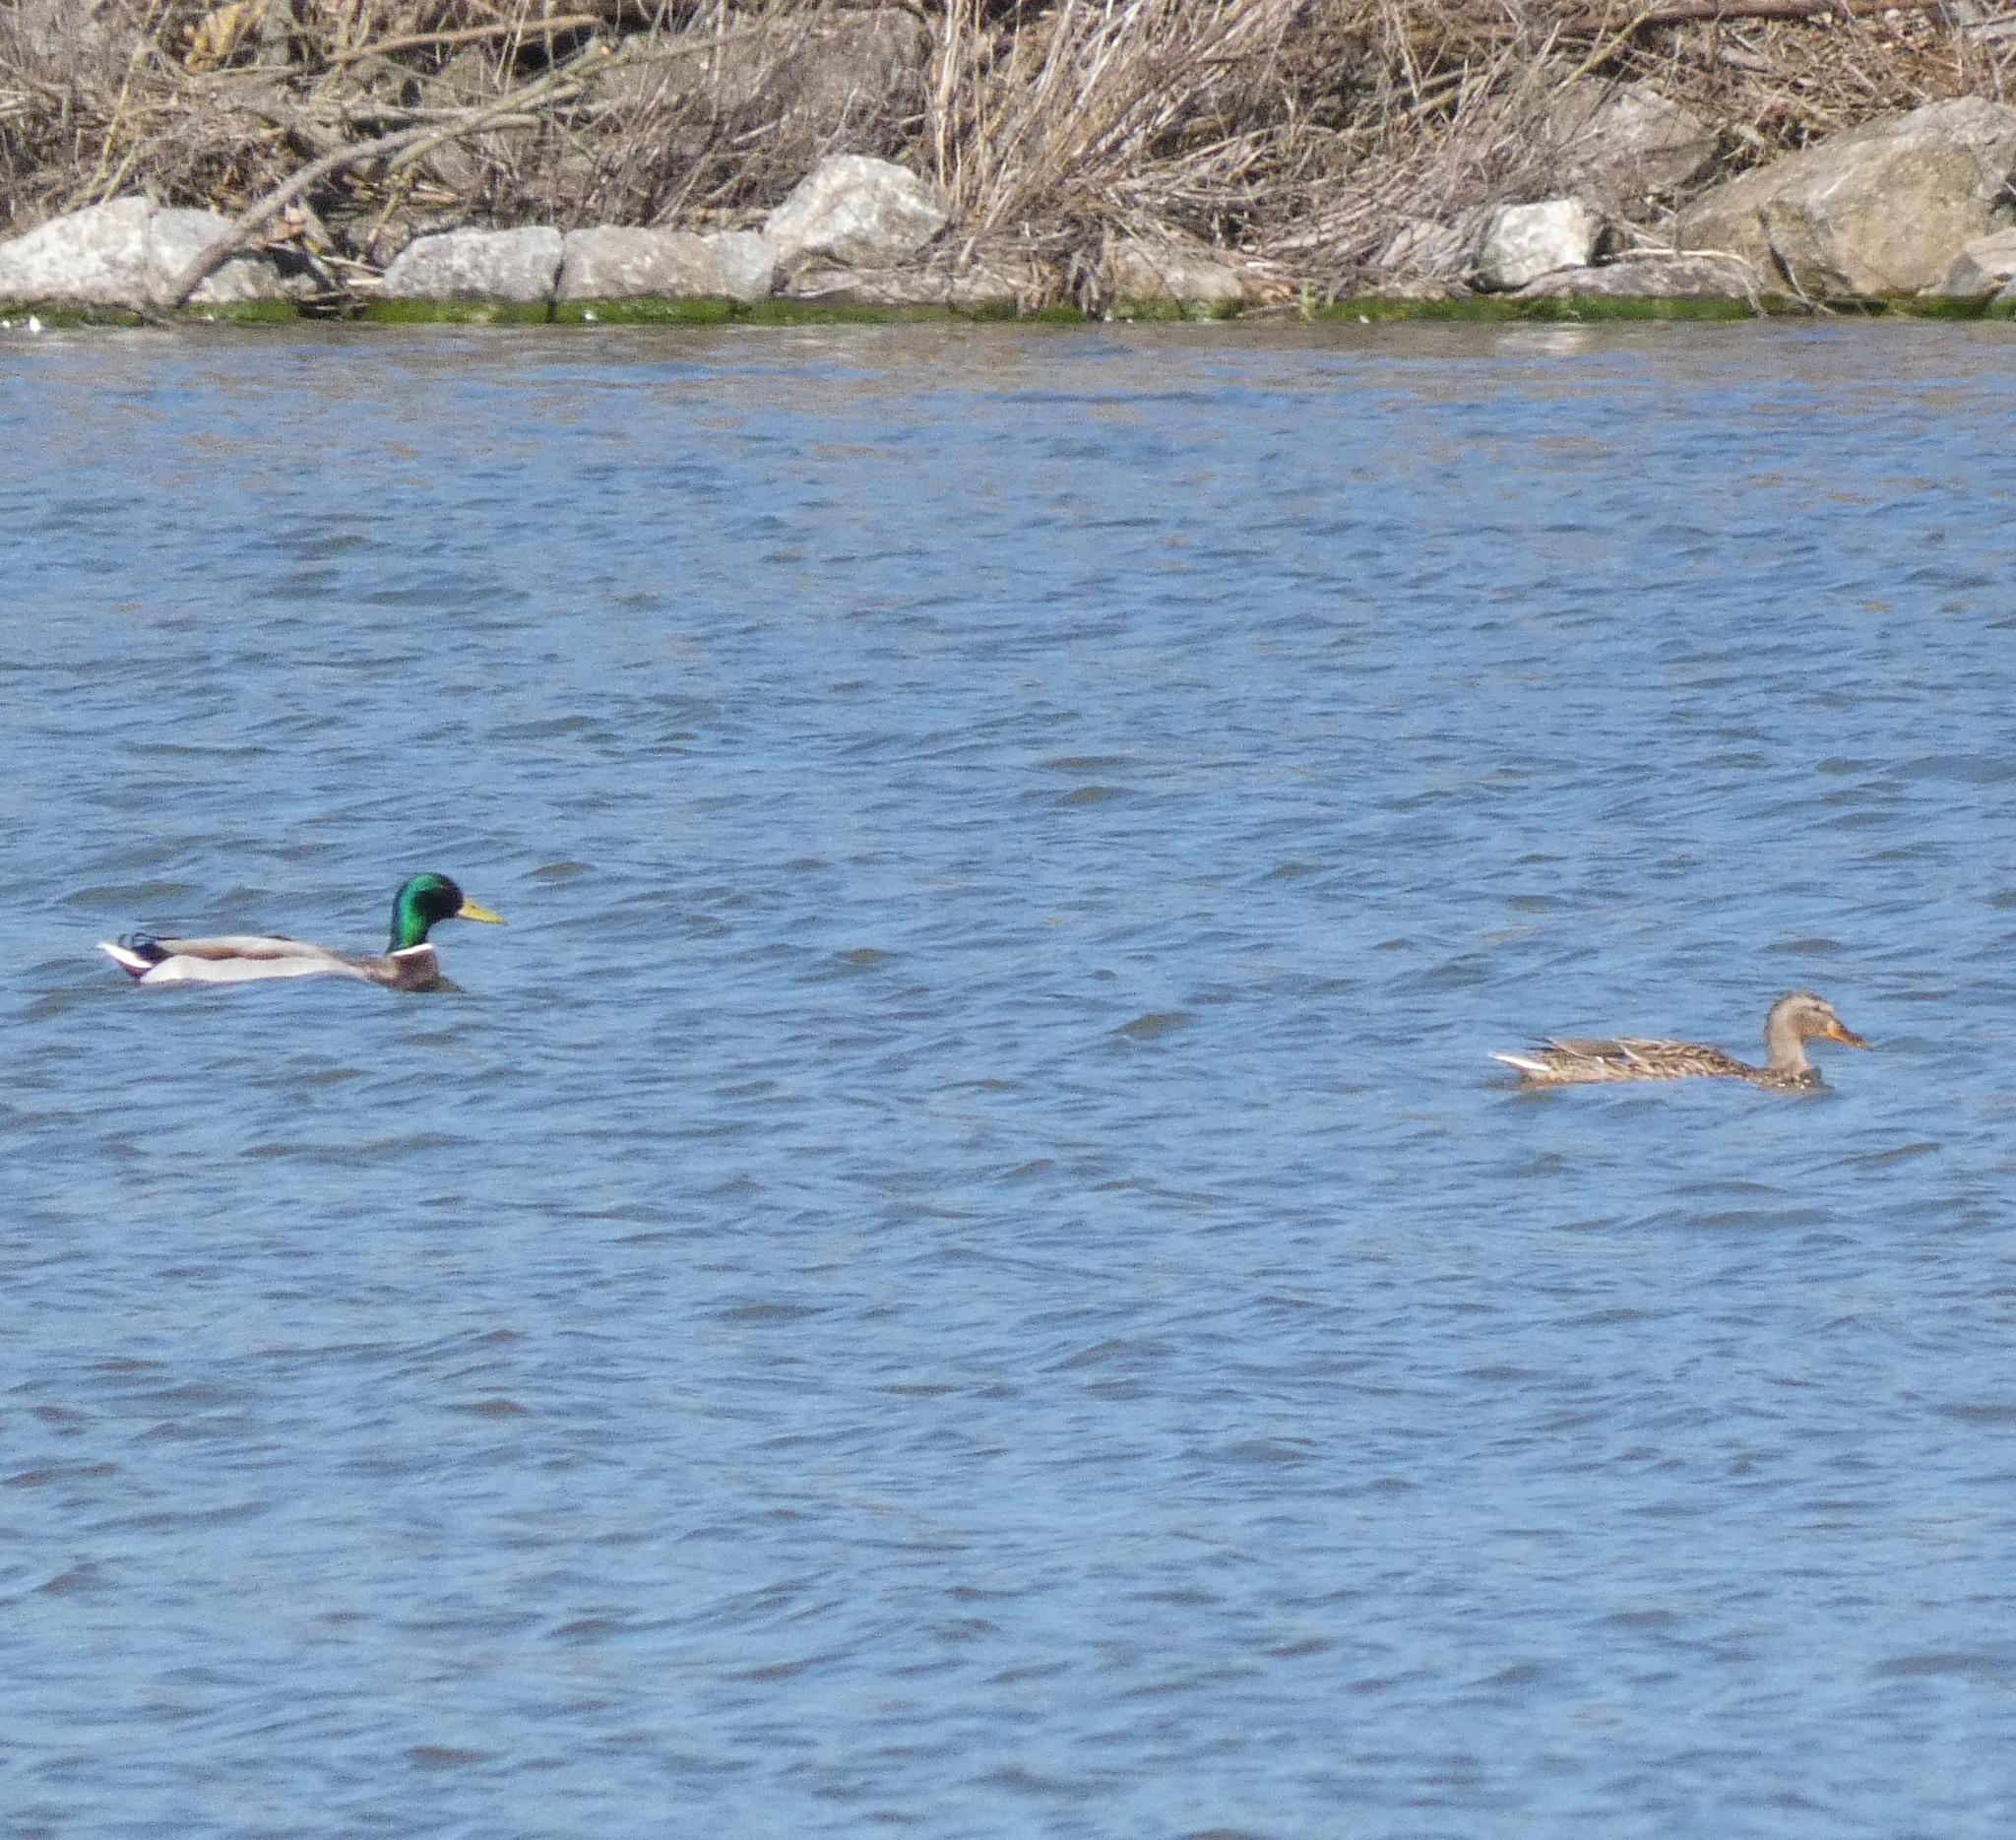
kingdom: Animalia
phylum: Chordata
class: Aves
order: Anseriformes
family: Anatidae
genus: Anas
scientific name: Anas platyrhynchos
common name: Mallard
